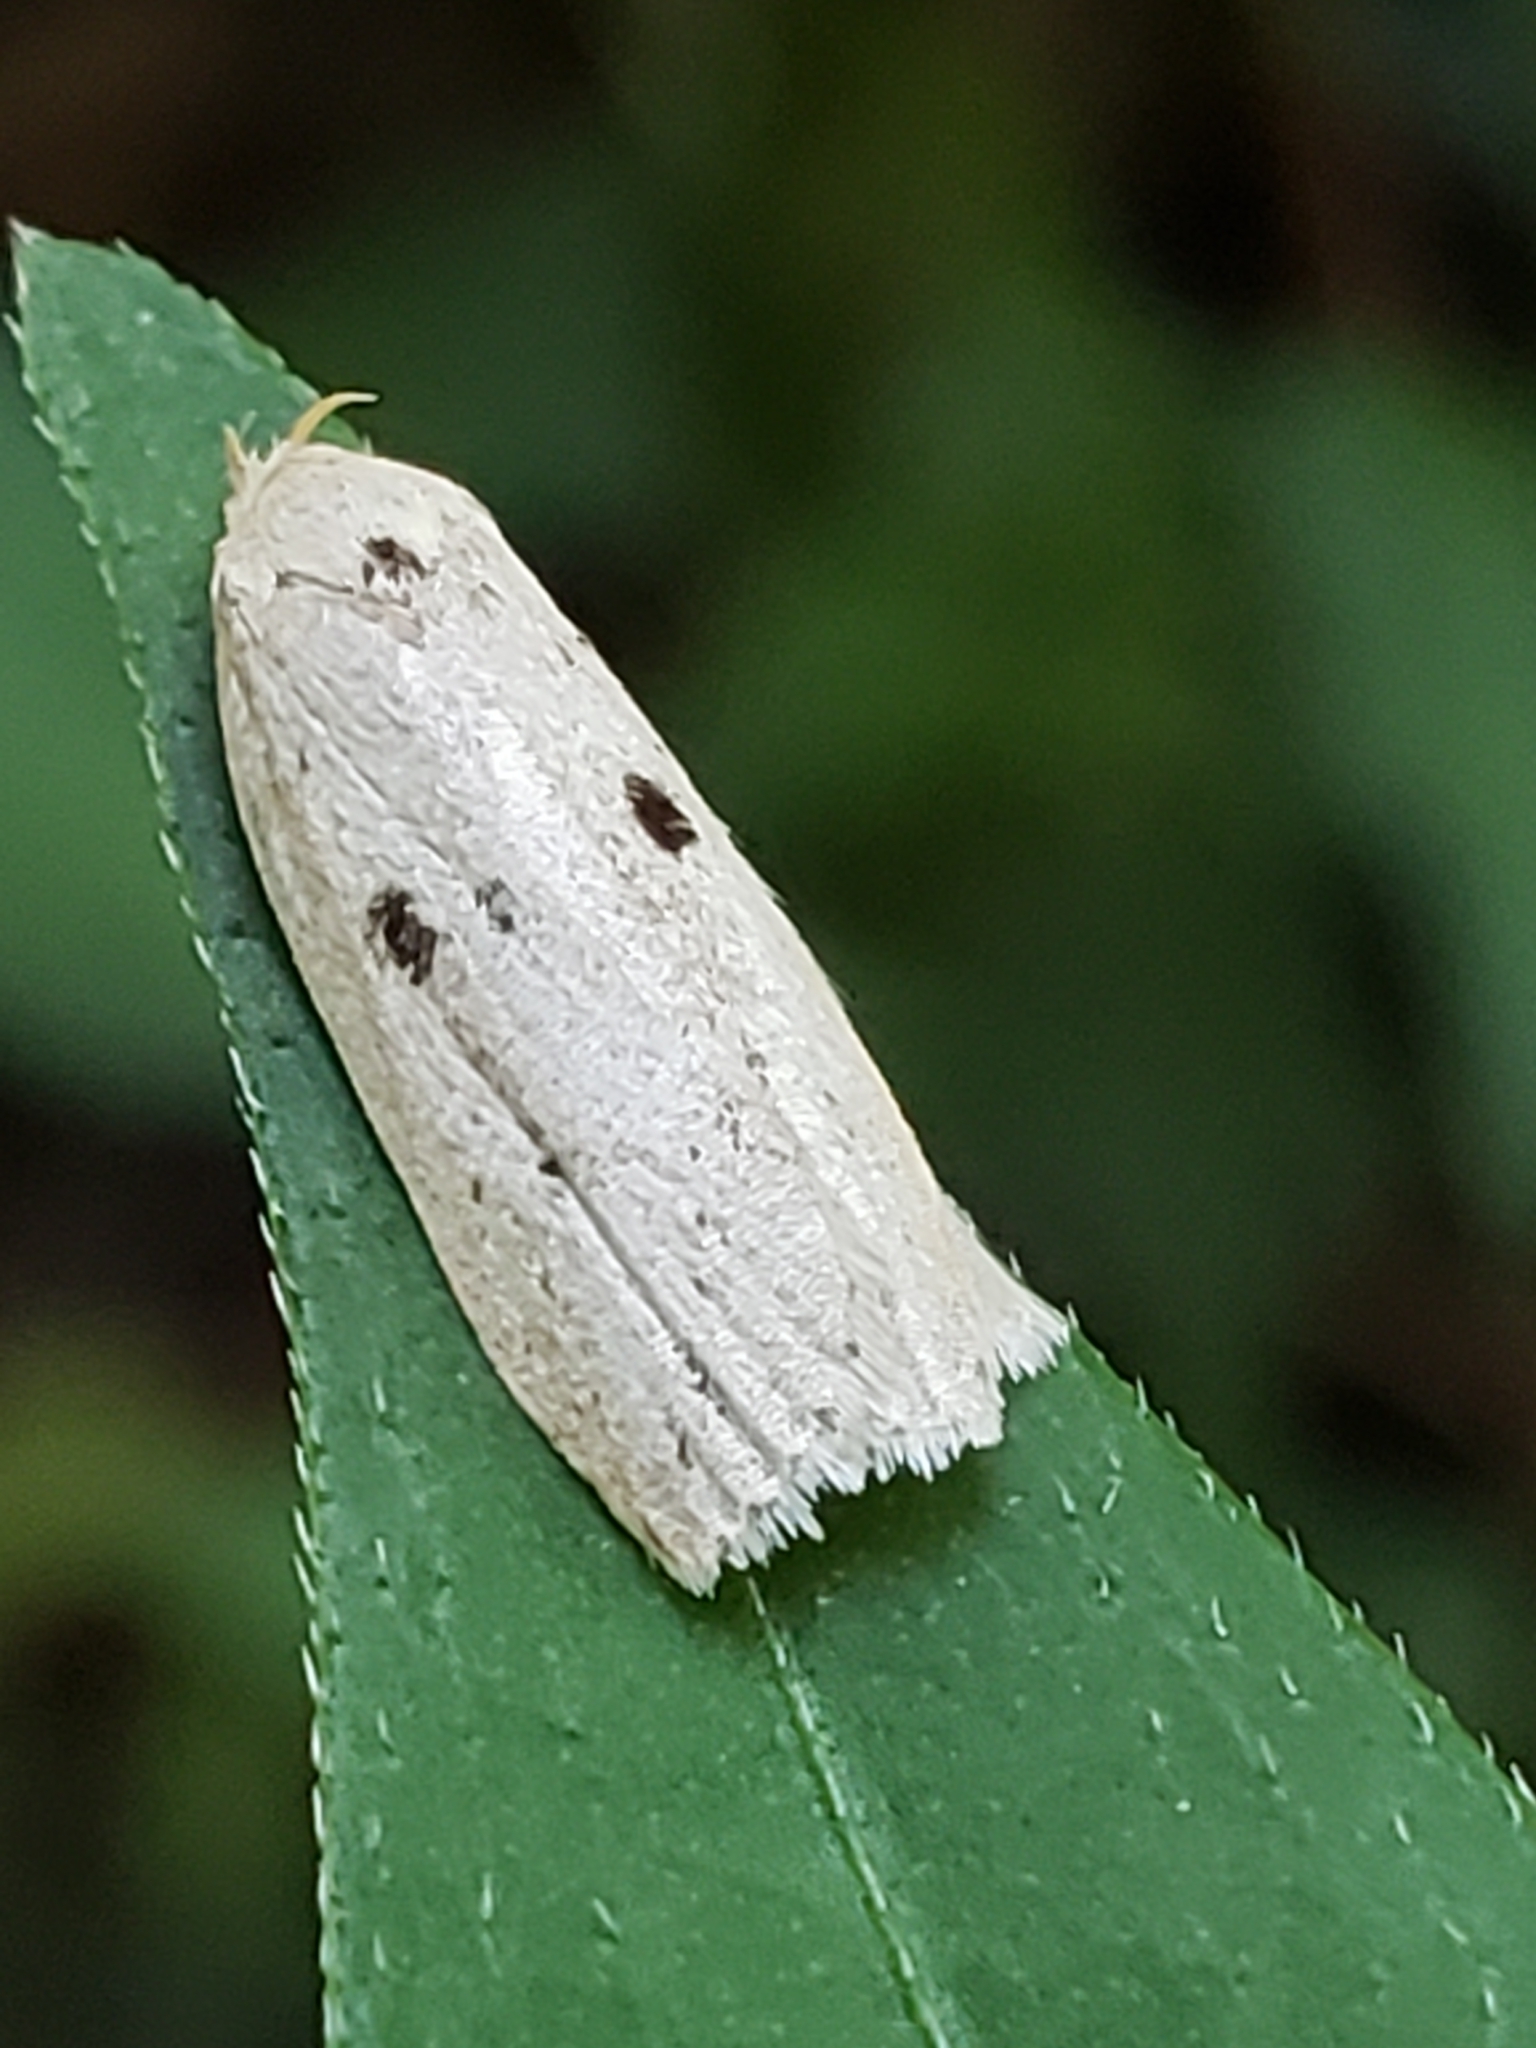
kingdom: Animalia
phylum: Arthropoda
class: Insecta
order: Lepidoptera
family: Peleopodidae
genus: Scythropiodes
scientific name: Scythropiodes issikii
